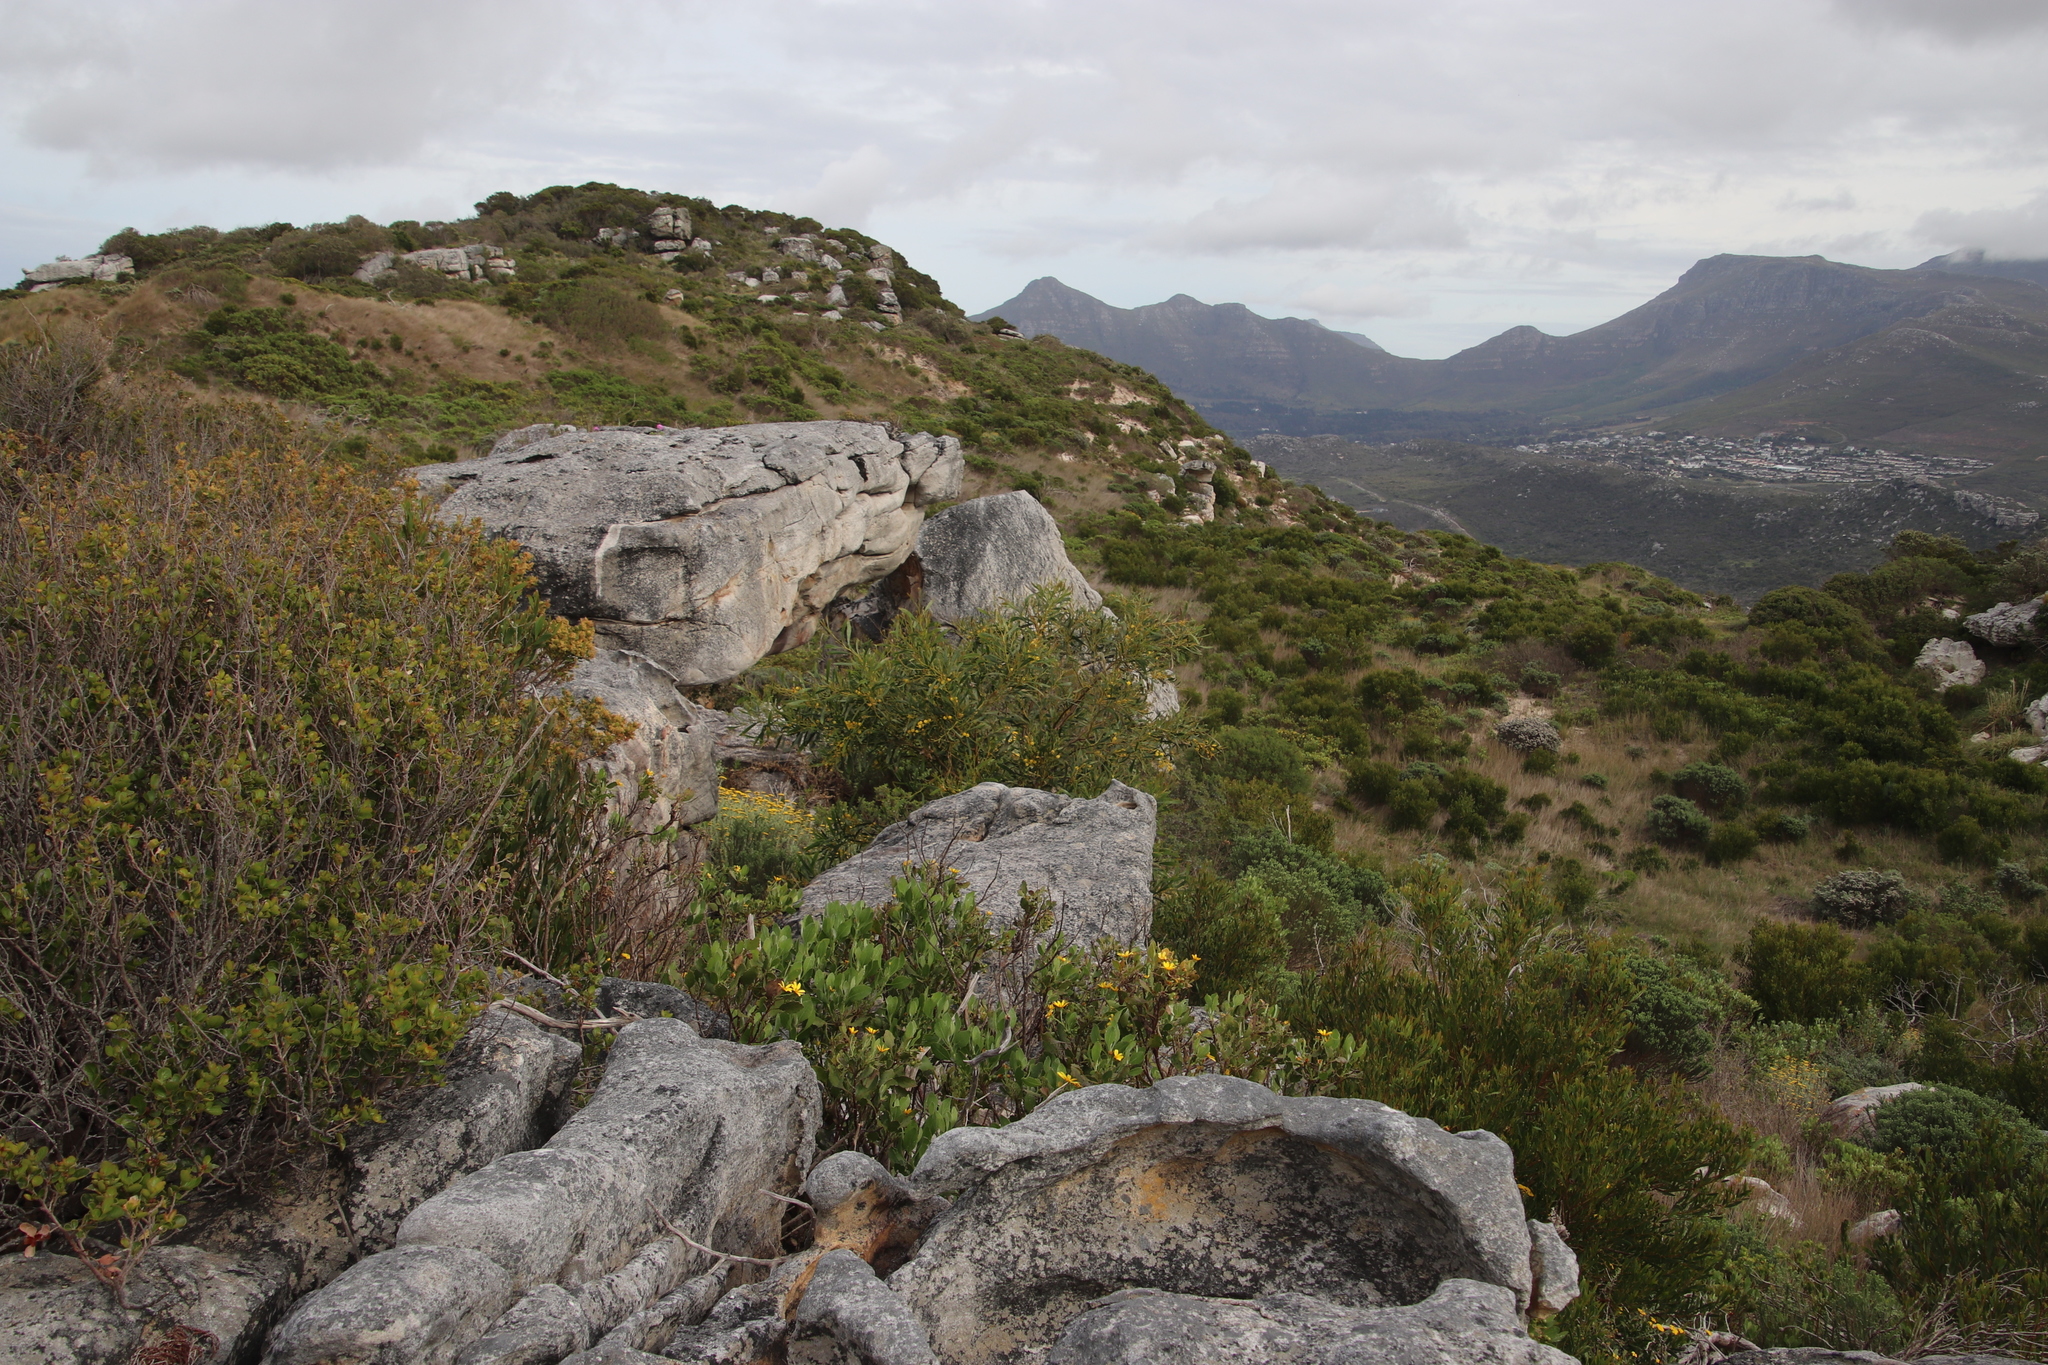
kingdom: Plantae
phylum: Tracheophyta
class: Magnoliopsida
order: Fabales
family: Fabaceae
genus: Acacia
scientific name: Acacia saligna
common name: Orange wattle
